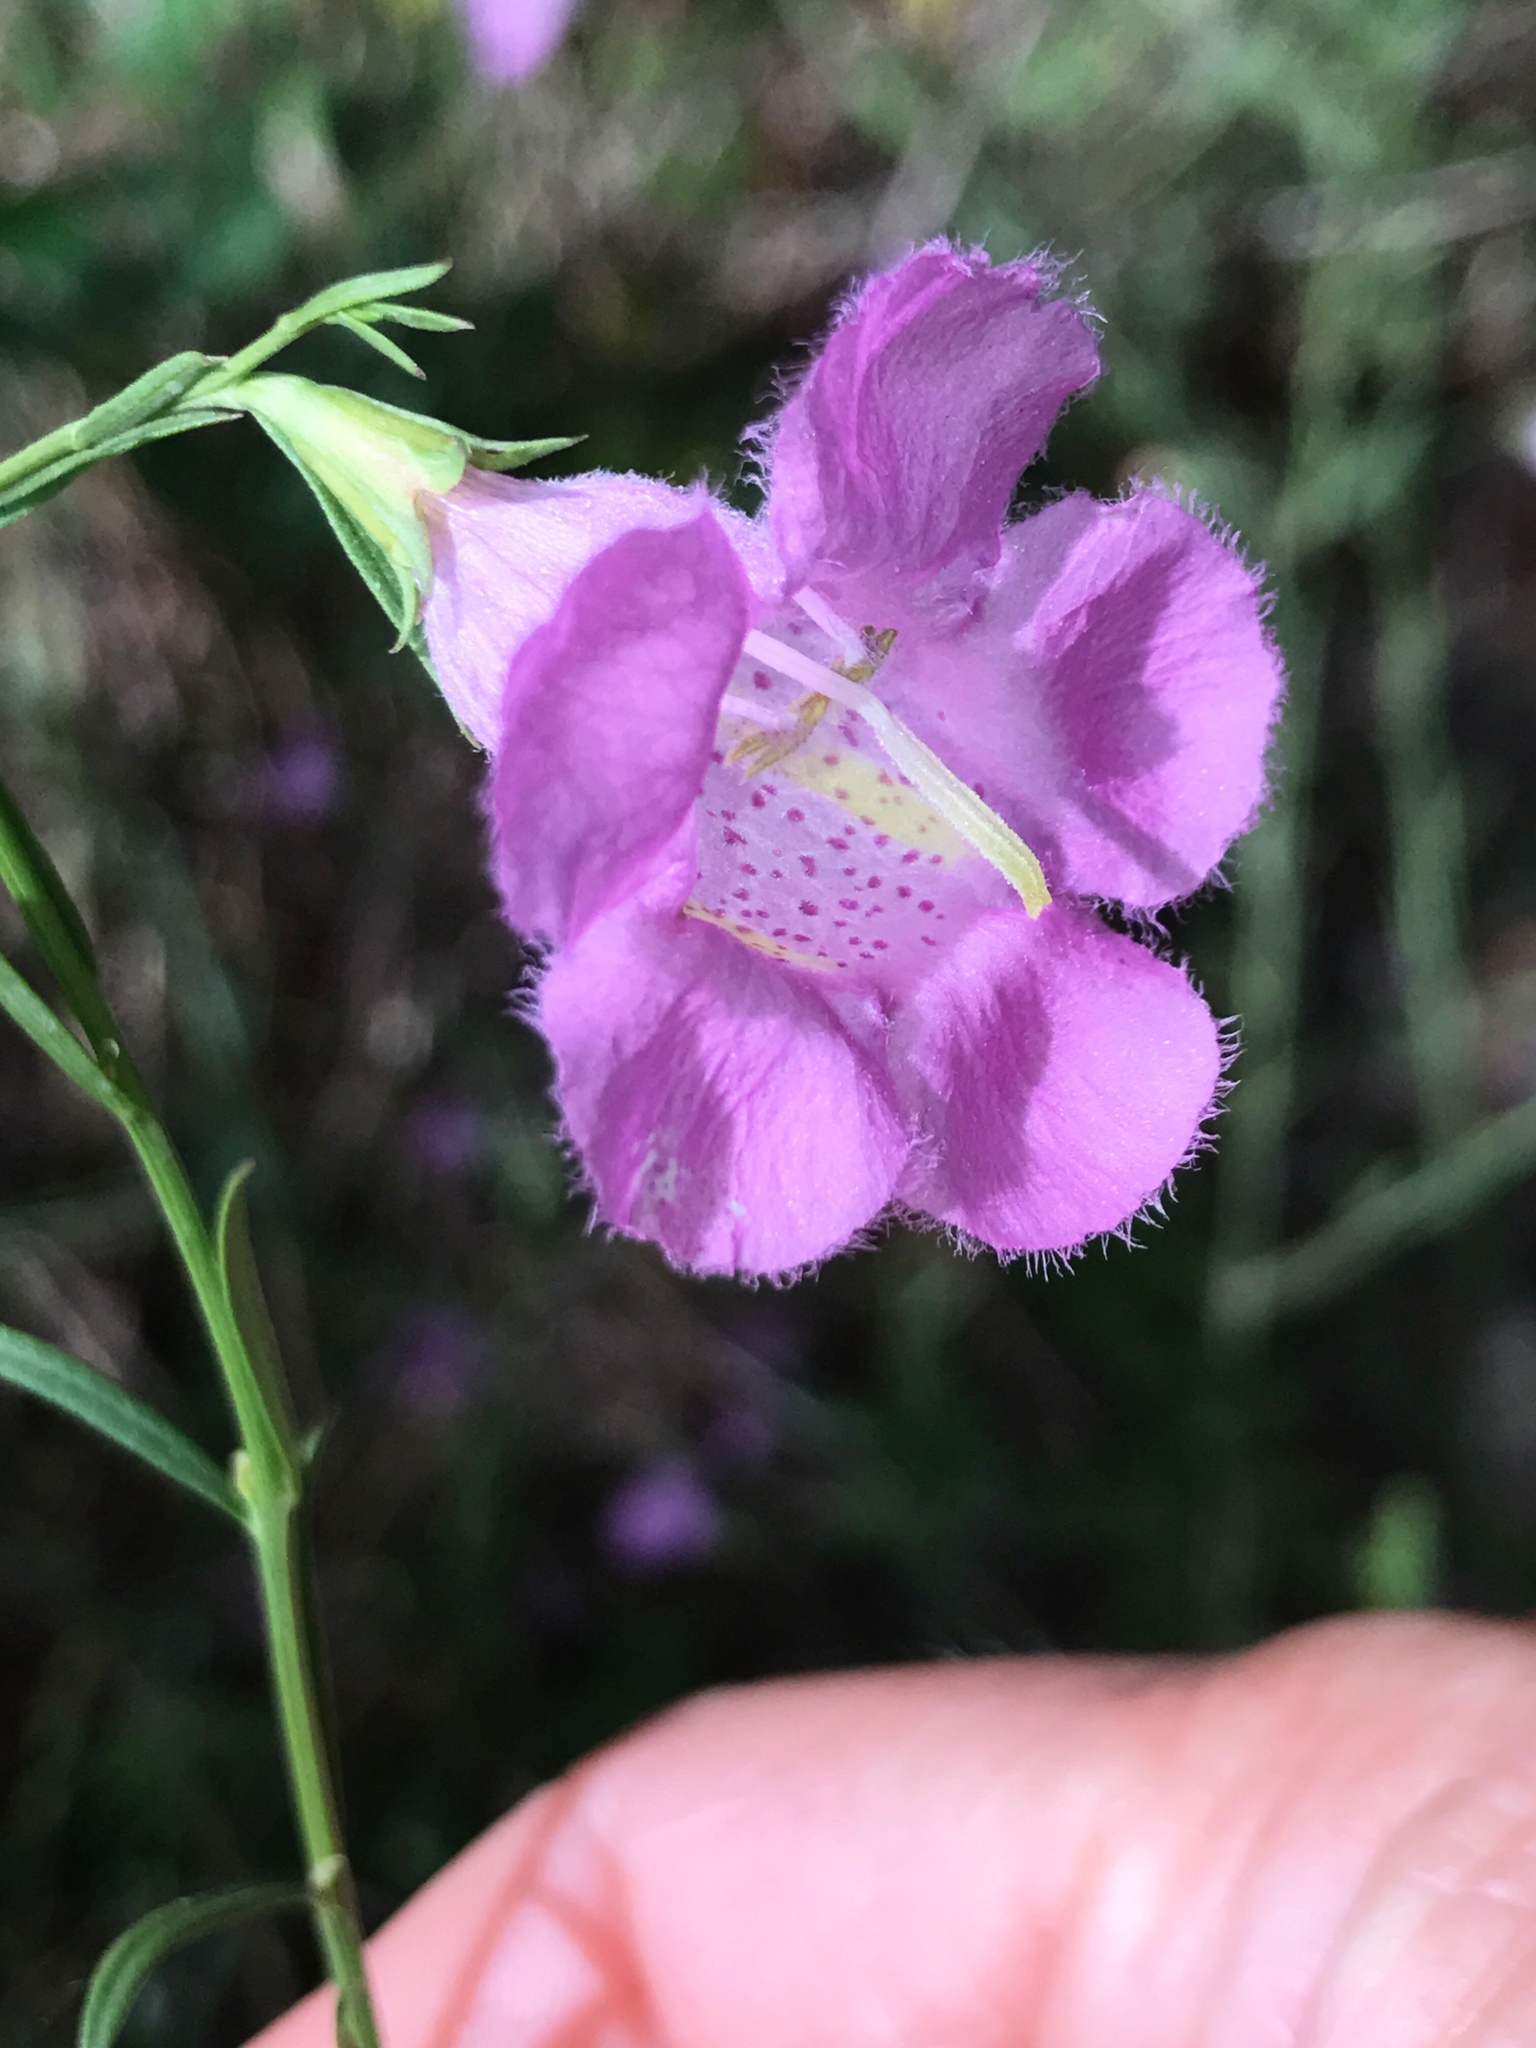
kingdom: Plantae
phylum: Tracheophyta
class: Magnoliopsida
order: Lamiales
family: Orobanchaceae
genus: Agalinis
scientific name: Agalinis heterophylla
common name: Prairie agalinis
